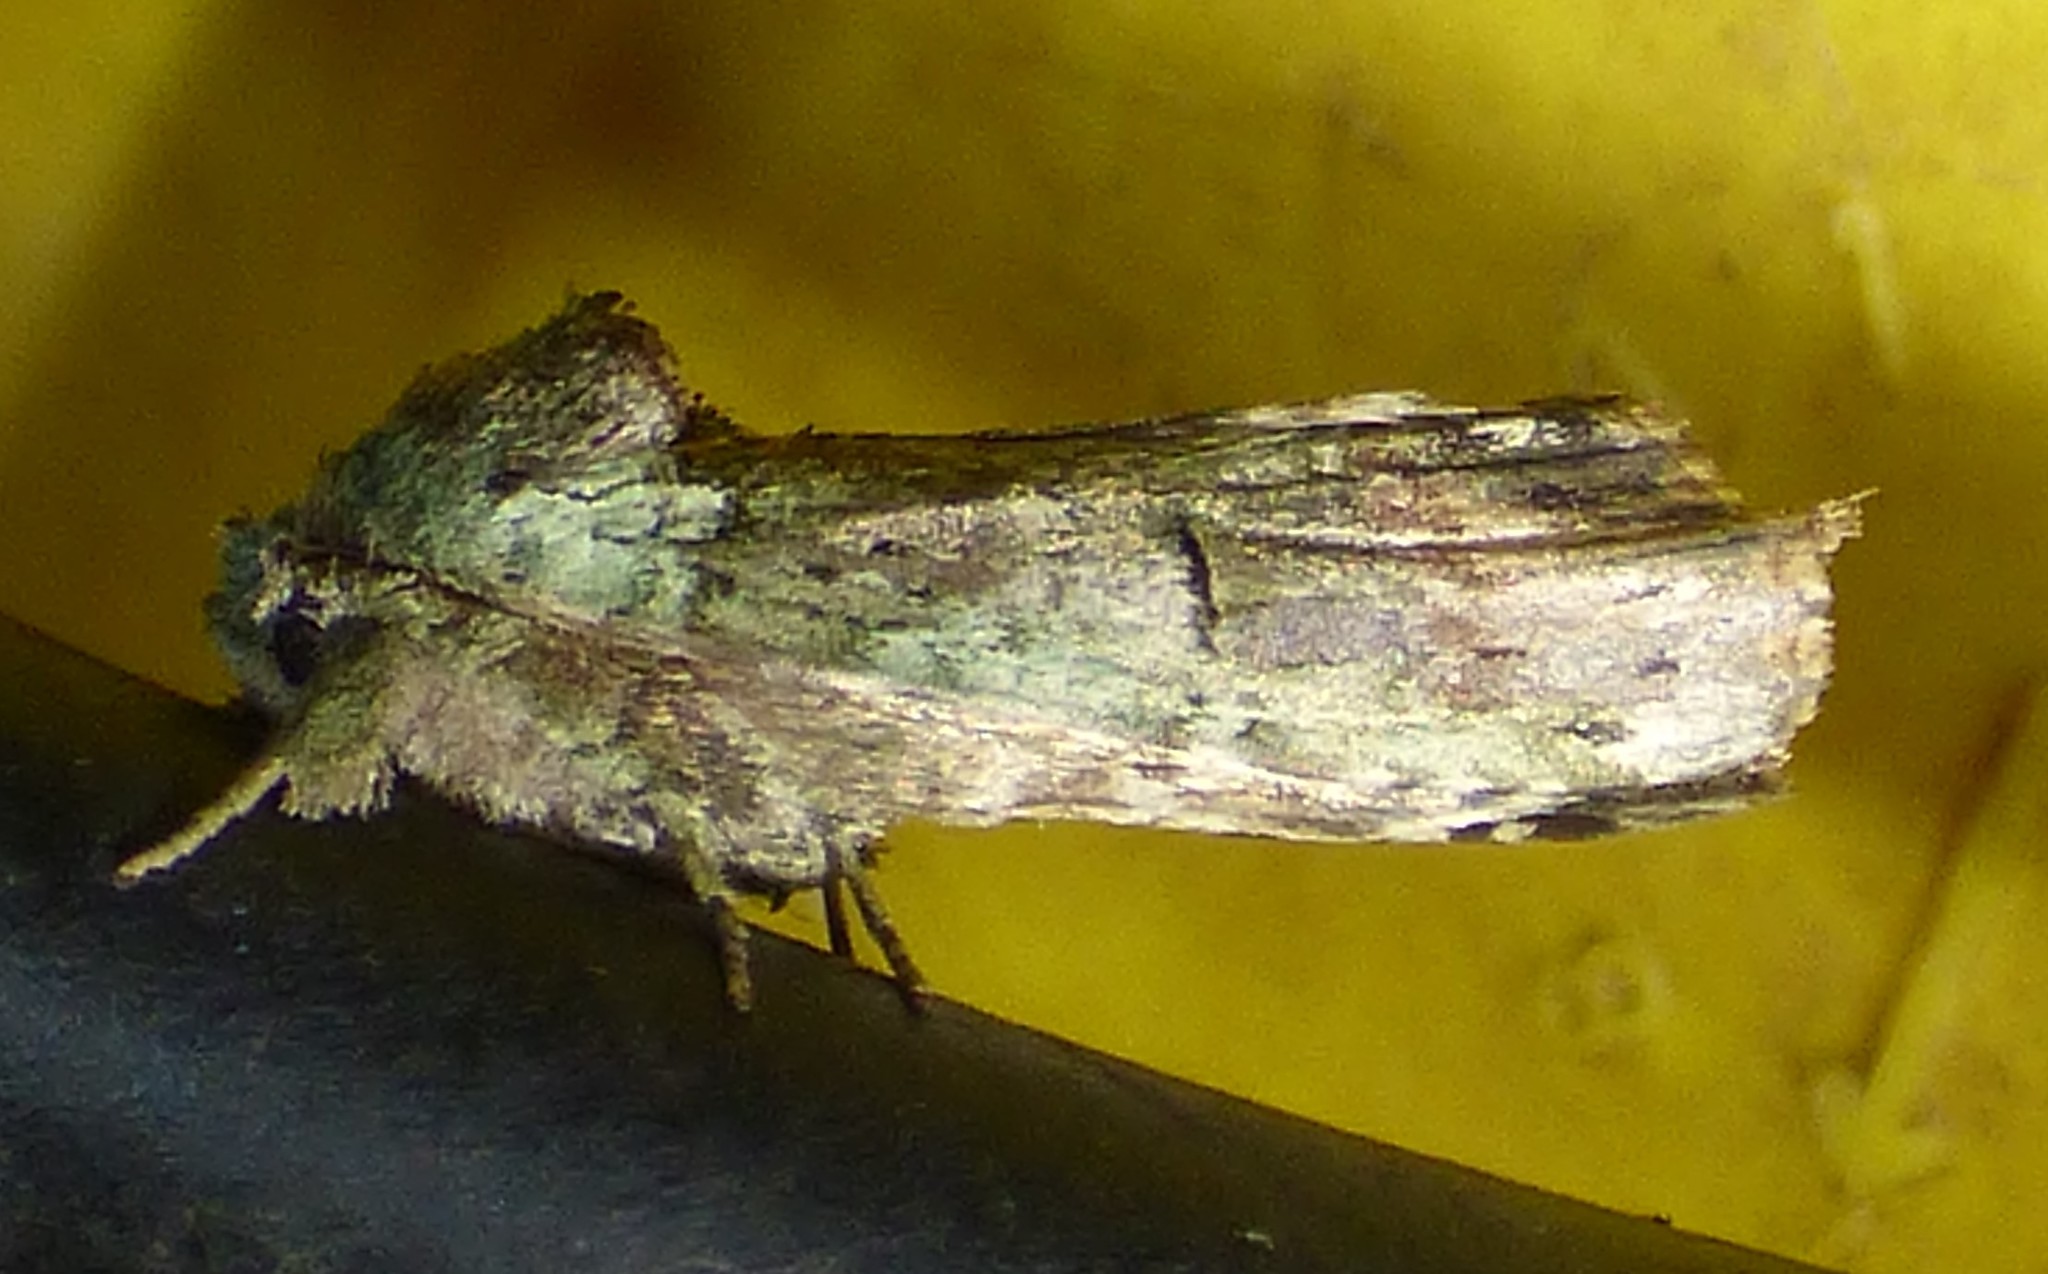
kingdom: Animalia
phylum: Arthropoda
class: Insecta
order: Lepidoptera
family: Notodontidae
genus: Schizura
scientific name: Schizura
